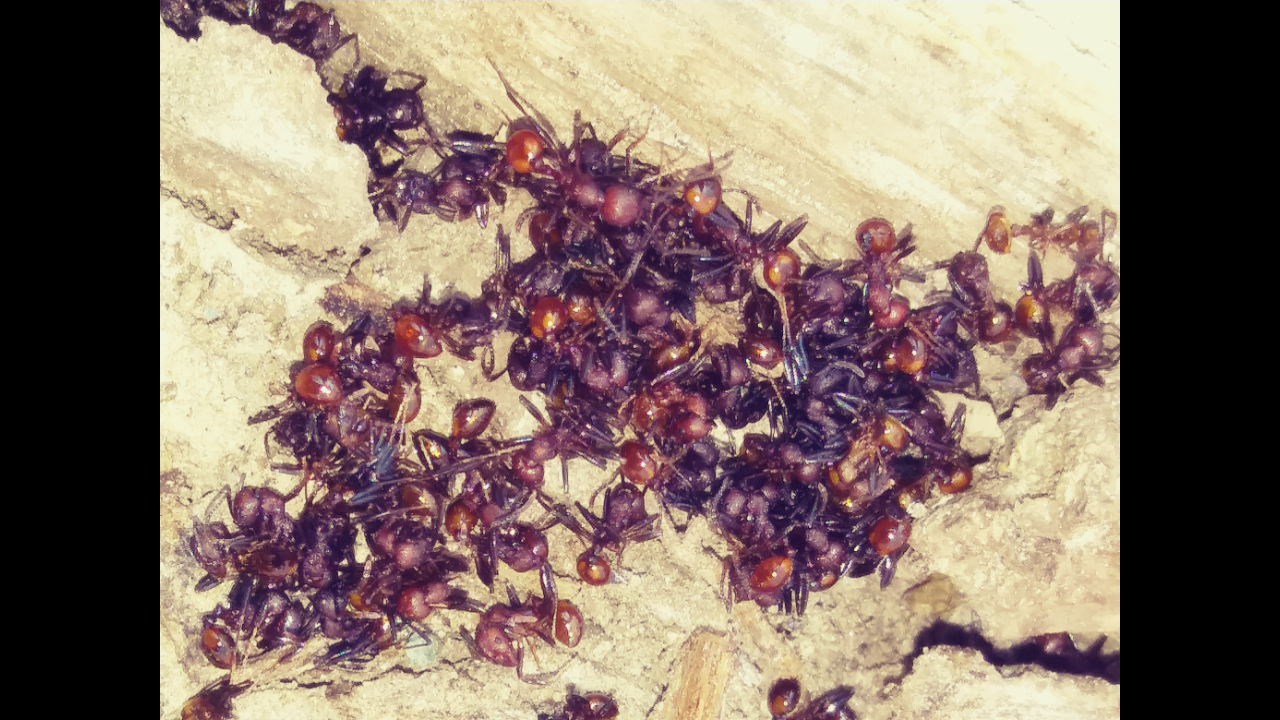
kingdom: Animalia
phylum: Arthropoda
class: Insecta
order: Hymenoptera
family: Formicidae
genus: Aphaenogaster
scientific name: Aphaenogaster tennesseensis
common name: Tennessee thread-waisted ant
